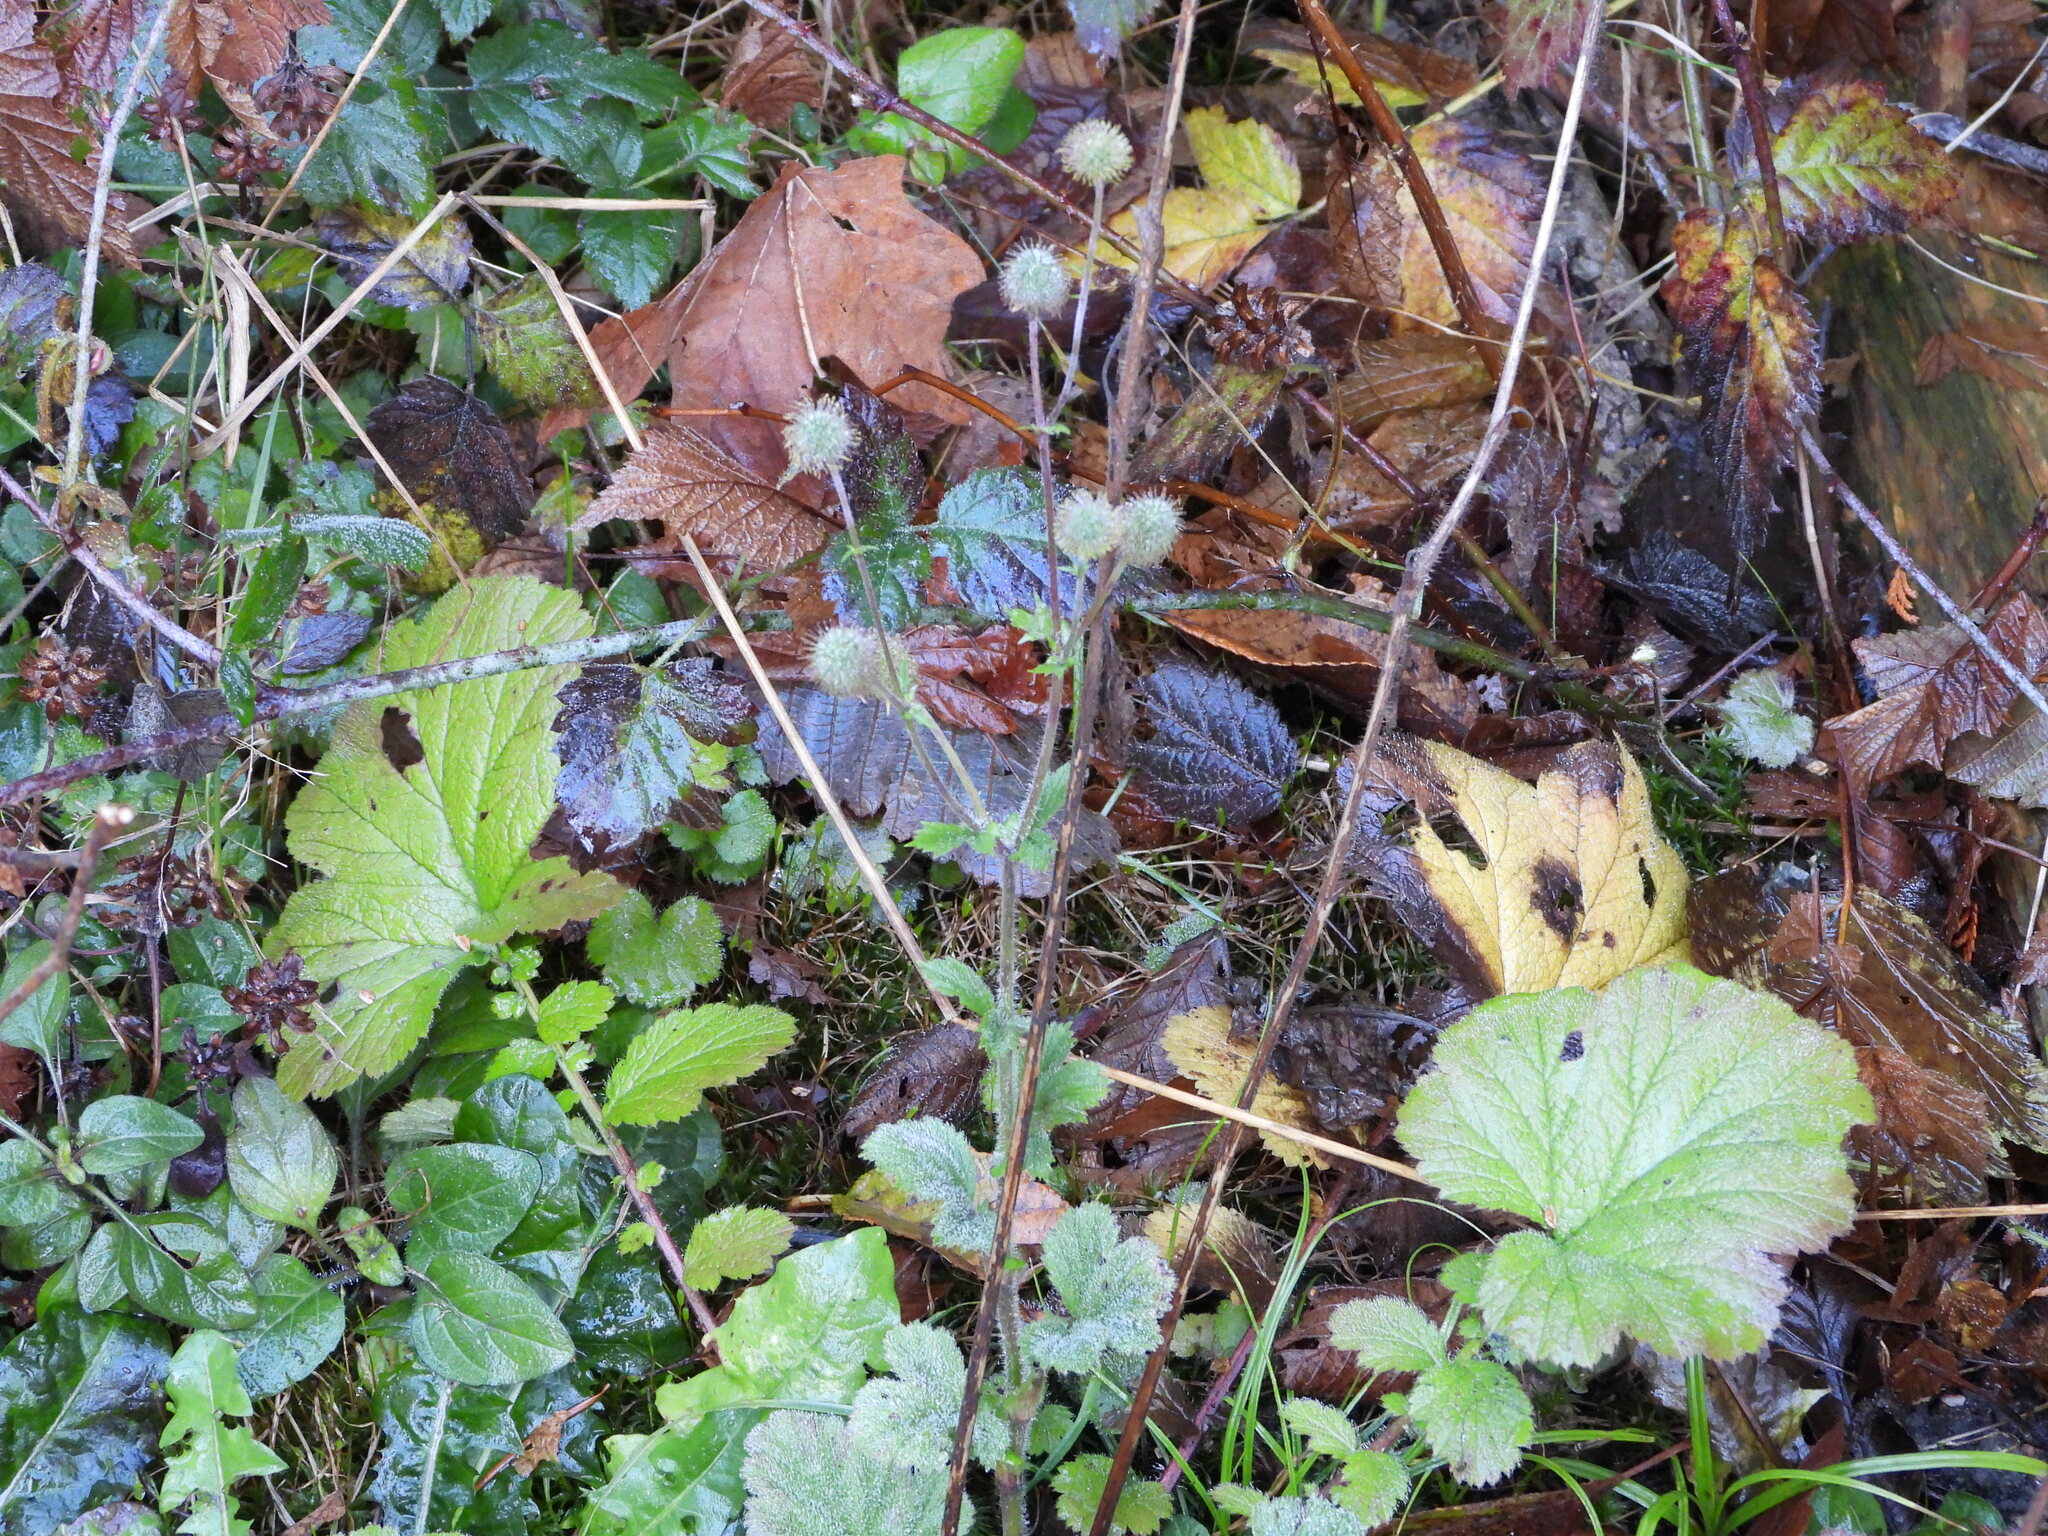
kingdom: Plantae
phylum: Tracheophyta
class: Magnoliopsida
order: Rosales
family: Rosaceae
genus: Geum
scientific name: Geum macrophyllum
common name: Large-leaved avens
